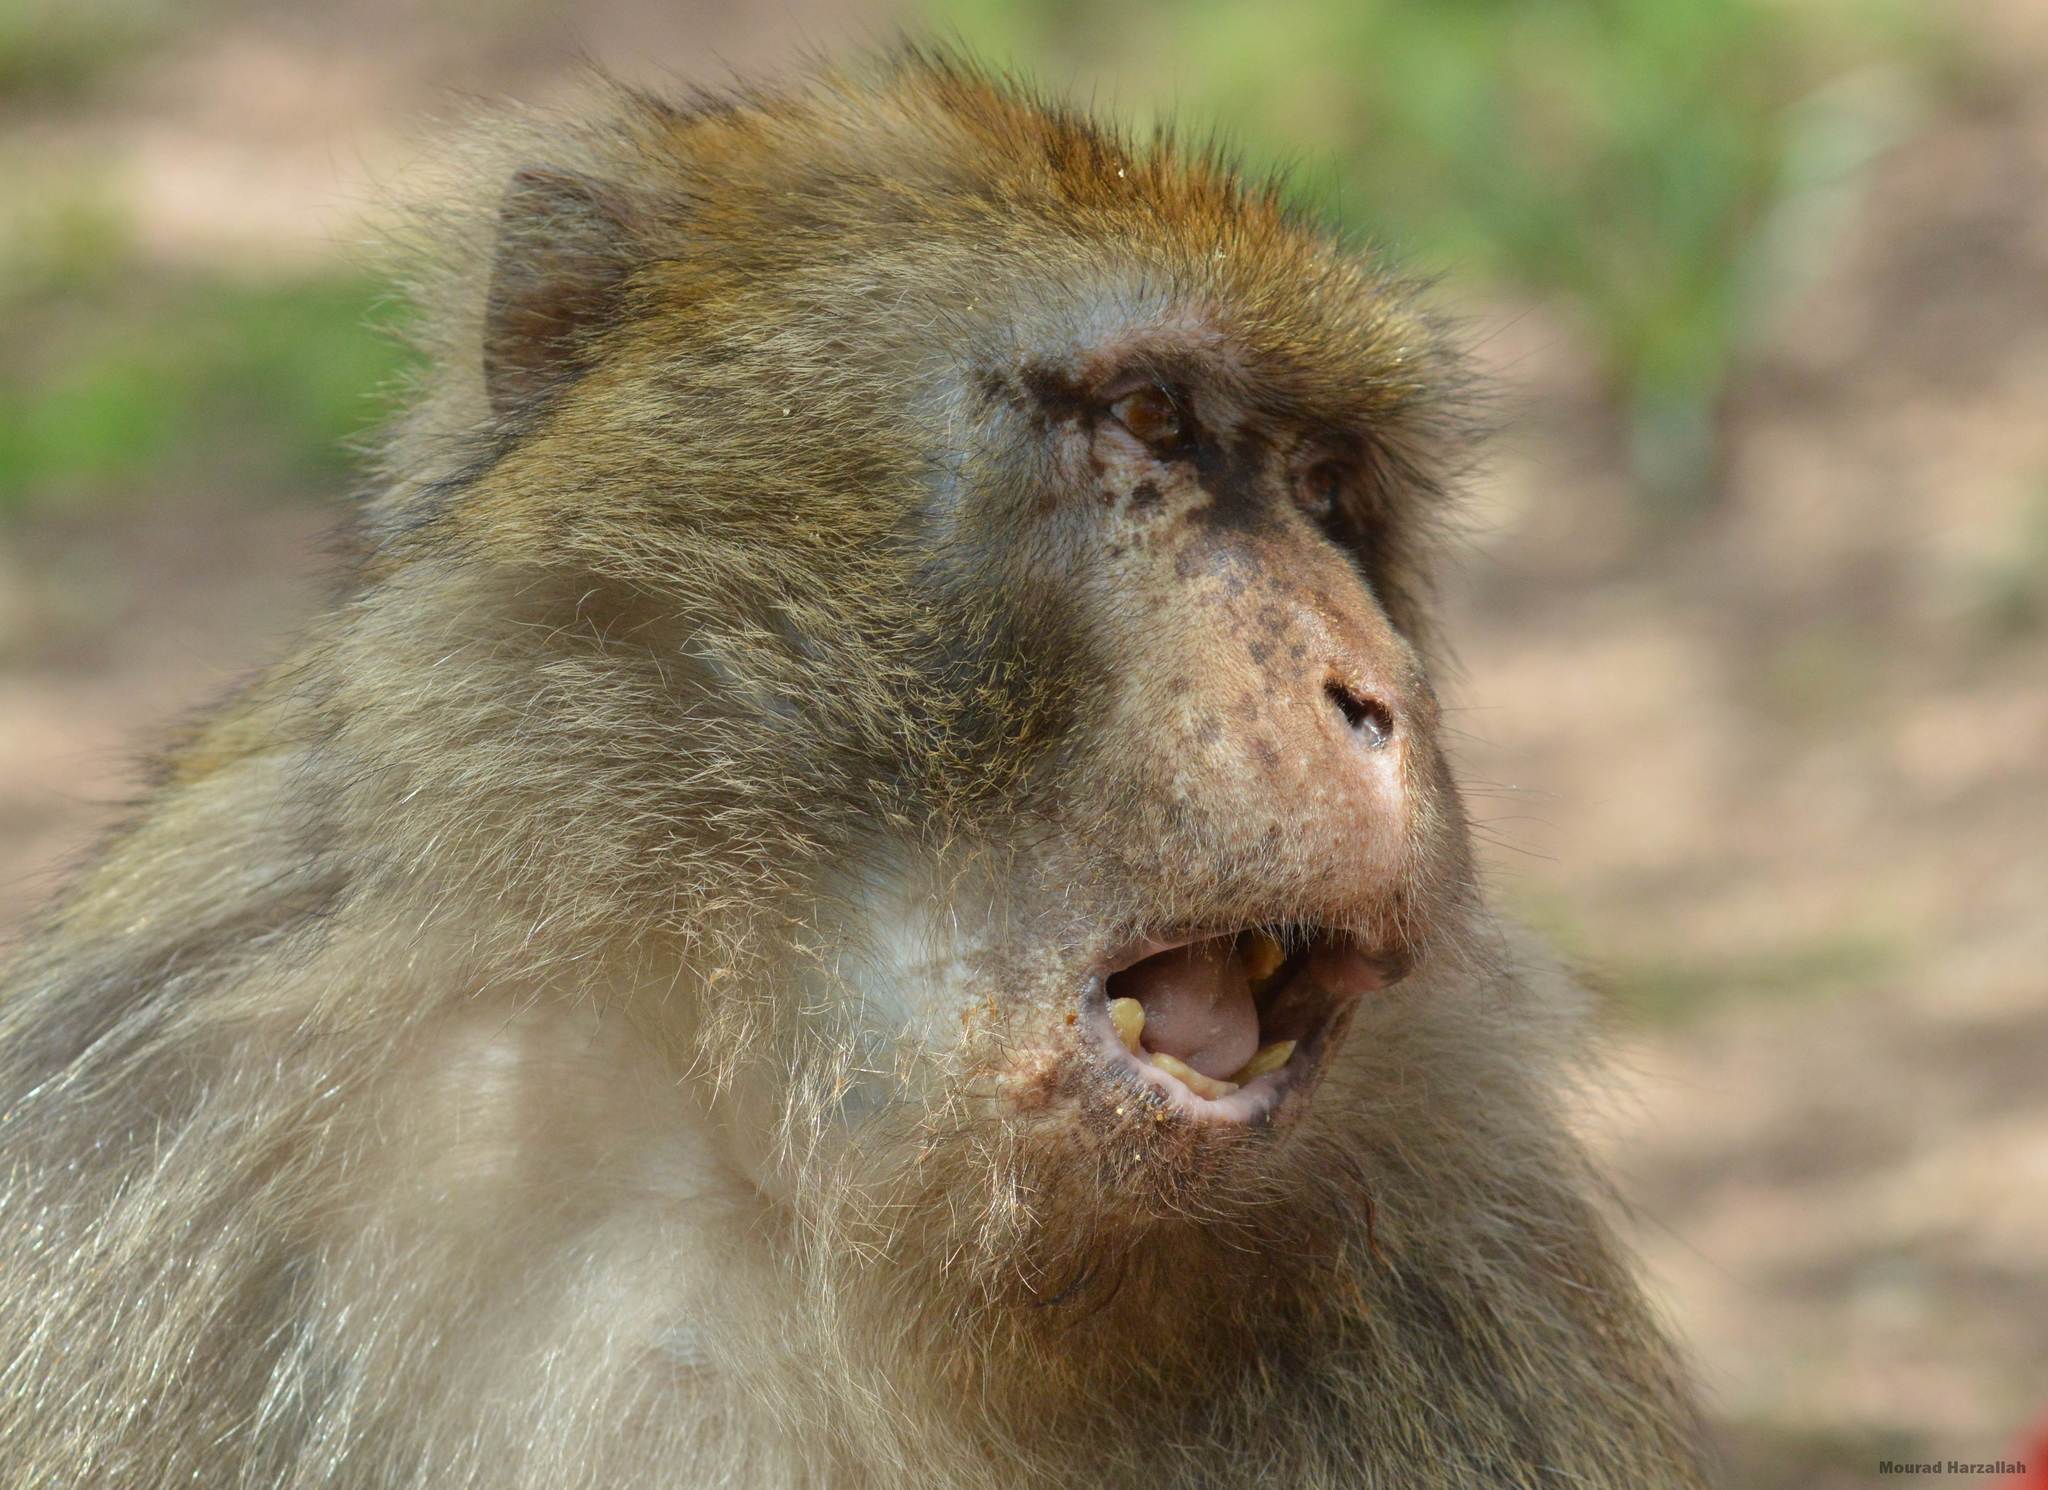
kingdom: Animalia
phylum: Chordata
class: Mammalia
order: Primates
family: Cercopithecidae
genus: Macaca
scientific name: Macaca sylvanus
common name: Barbary macaque
